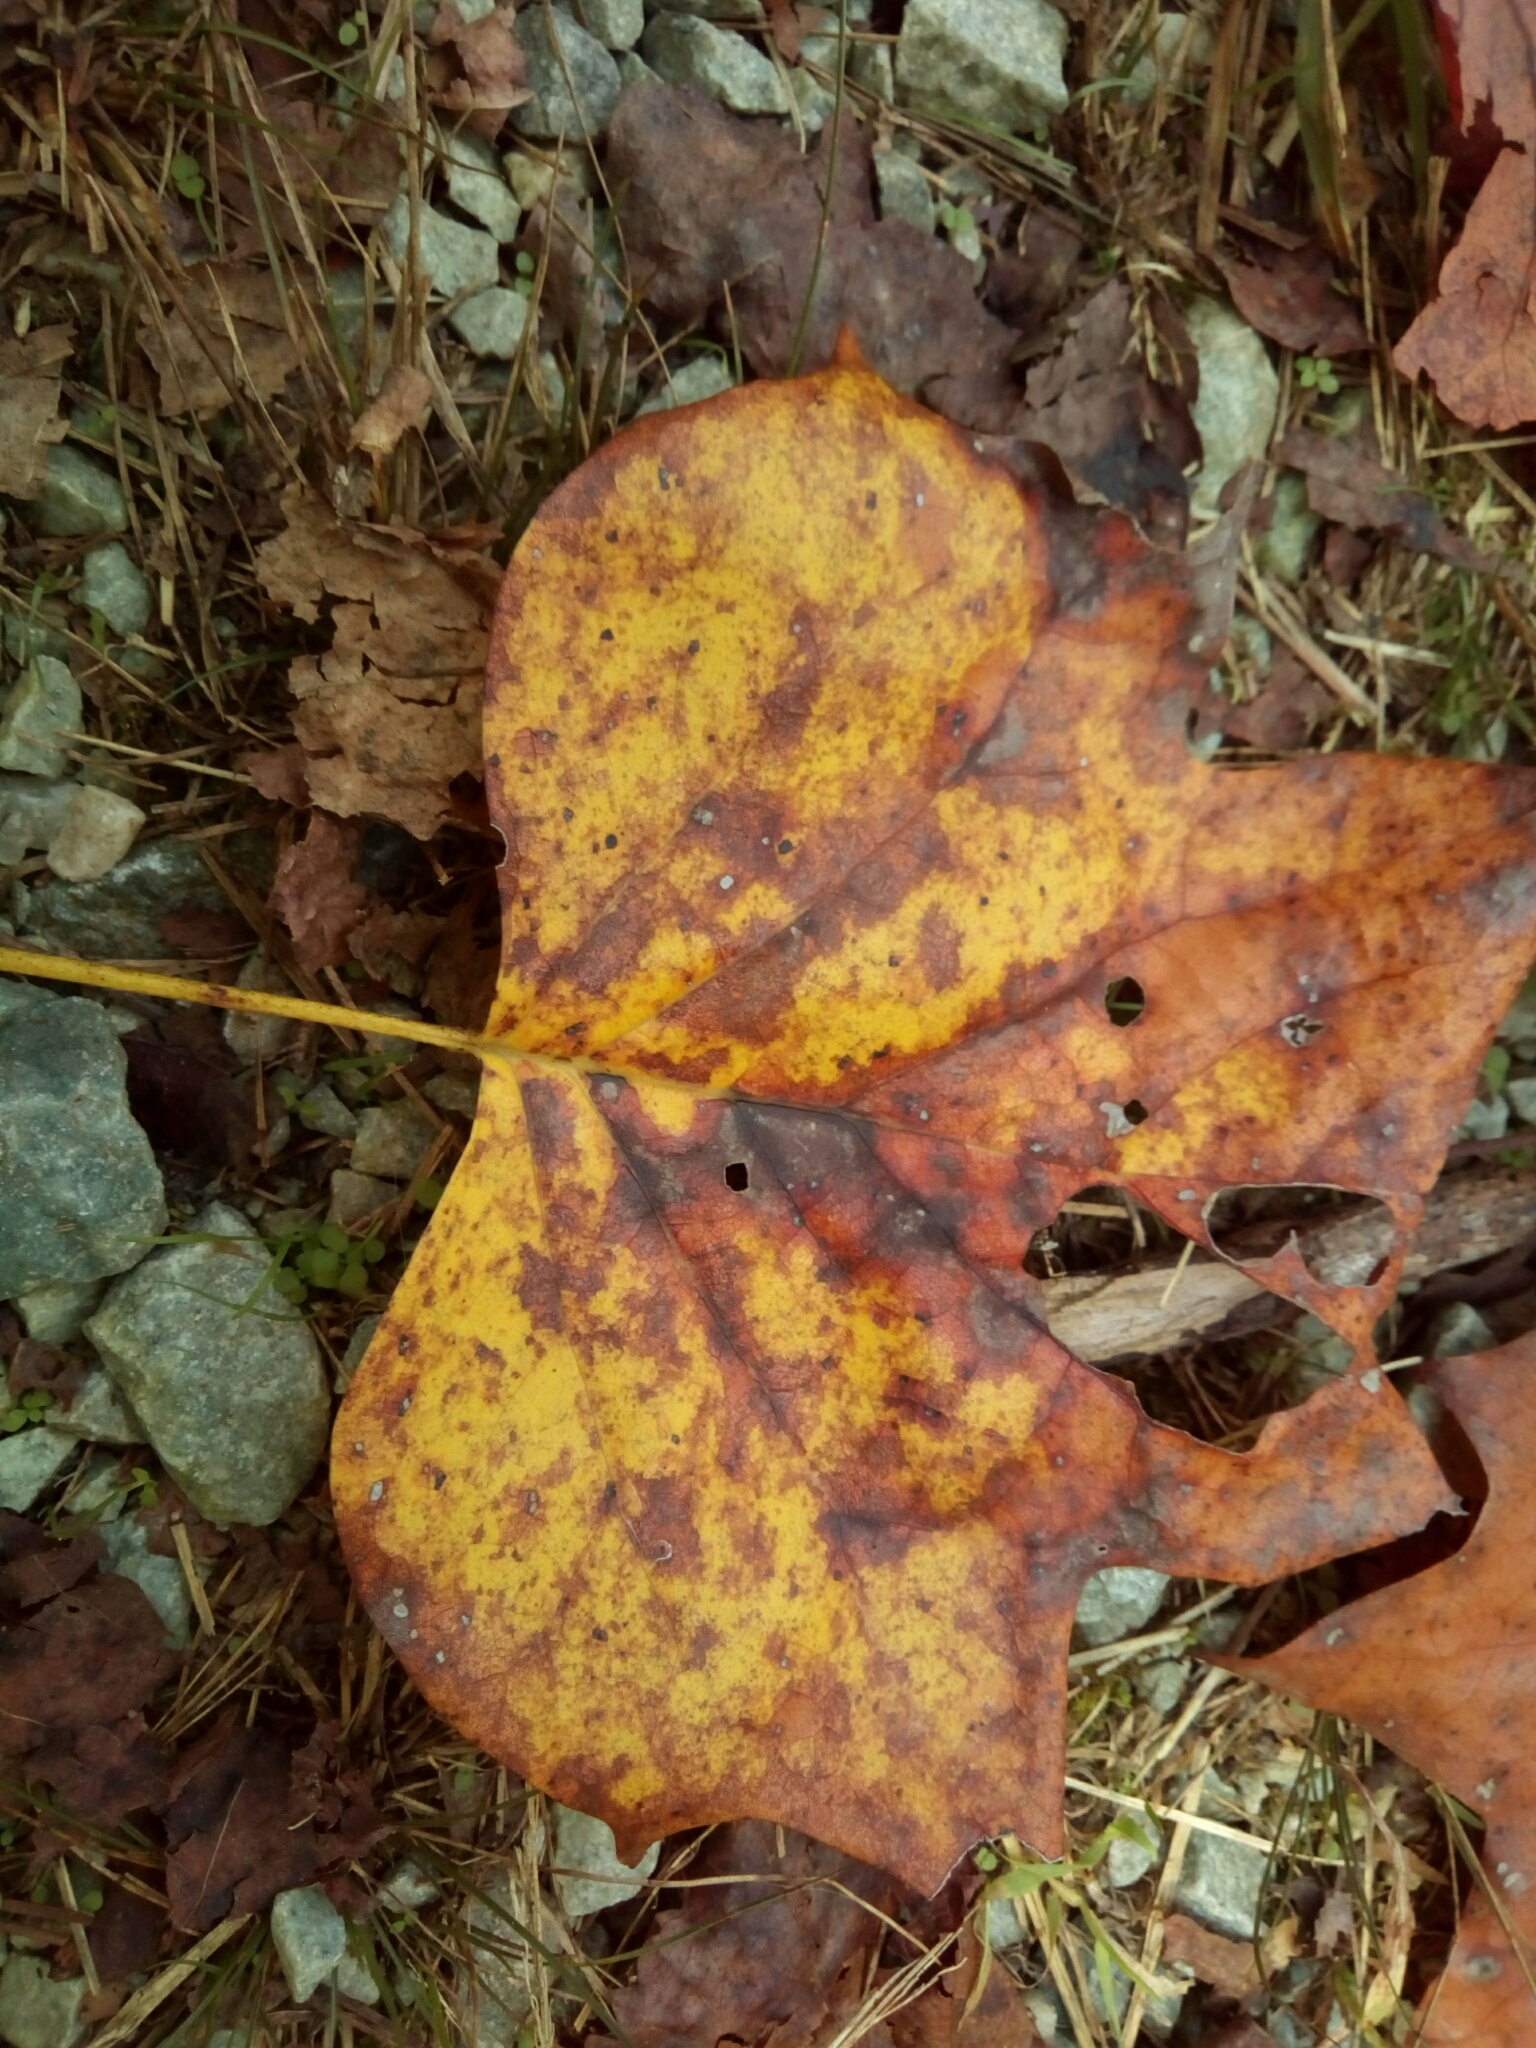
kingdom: Plantae
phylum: Tracheophyta
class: Magnoliopsida
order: Magnoliales
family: Magnoliaceae
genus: Liriodendron
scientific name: Liriodendron tulipifera
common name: Tulip tree
